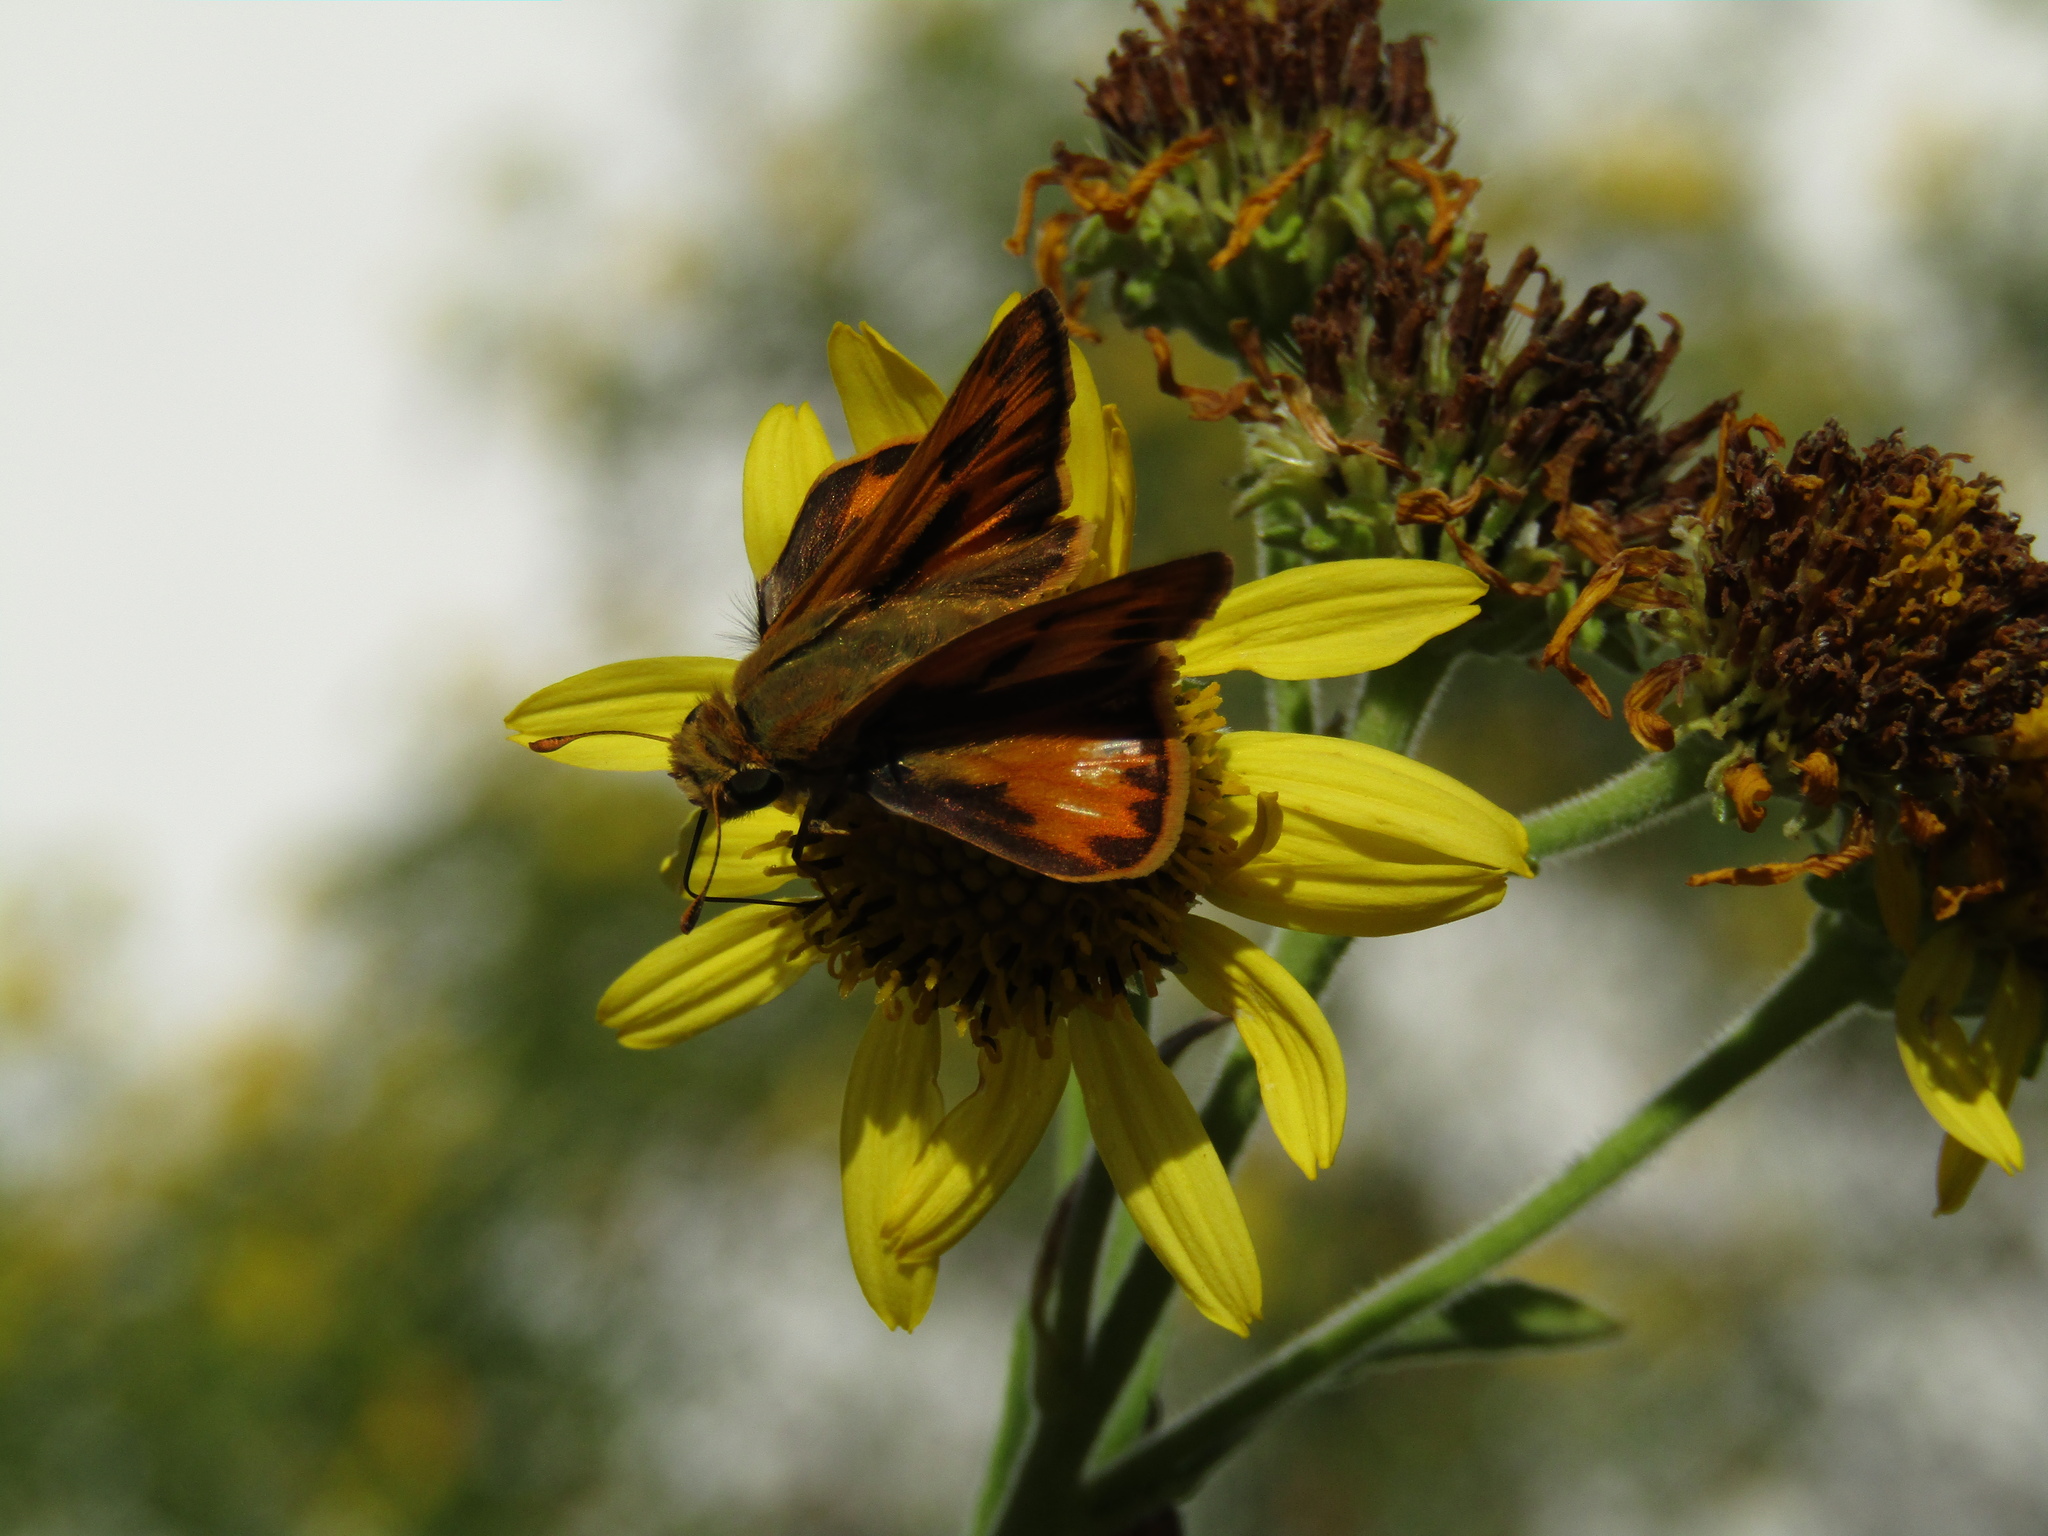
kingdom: Animalia
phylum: Arthropoda
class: Insecta
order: Lepidoptera
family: Hesperiidae
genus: Hylephila
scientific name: Hylephila phyleus
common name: Fiery skipper
